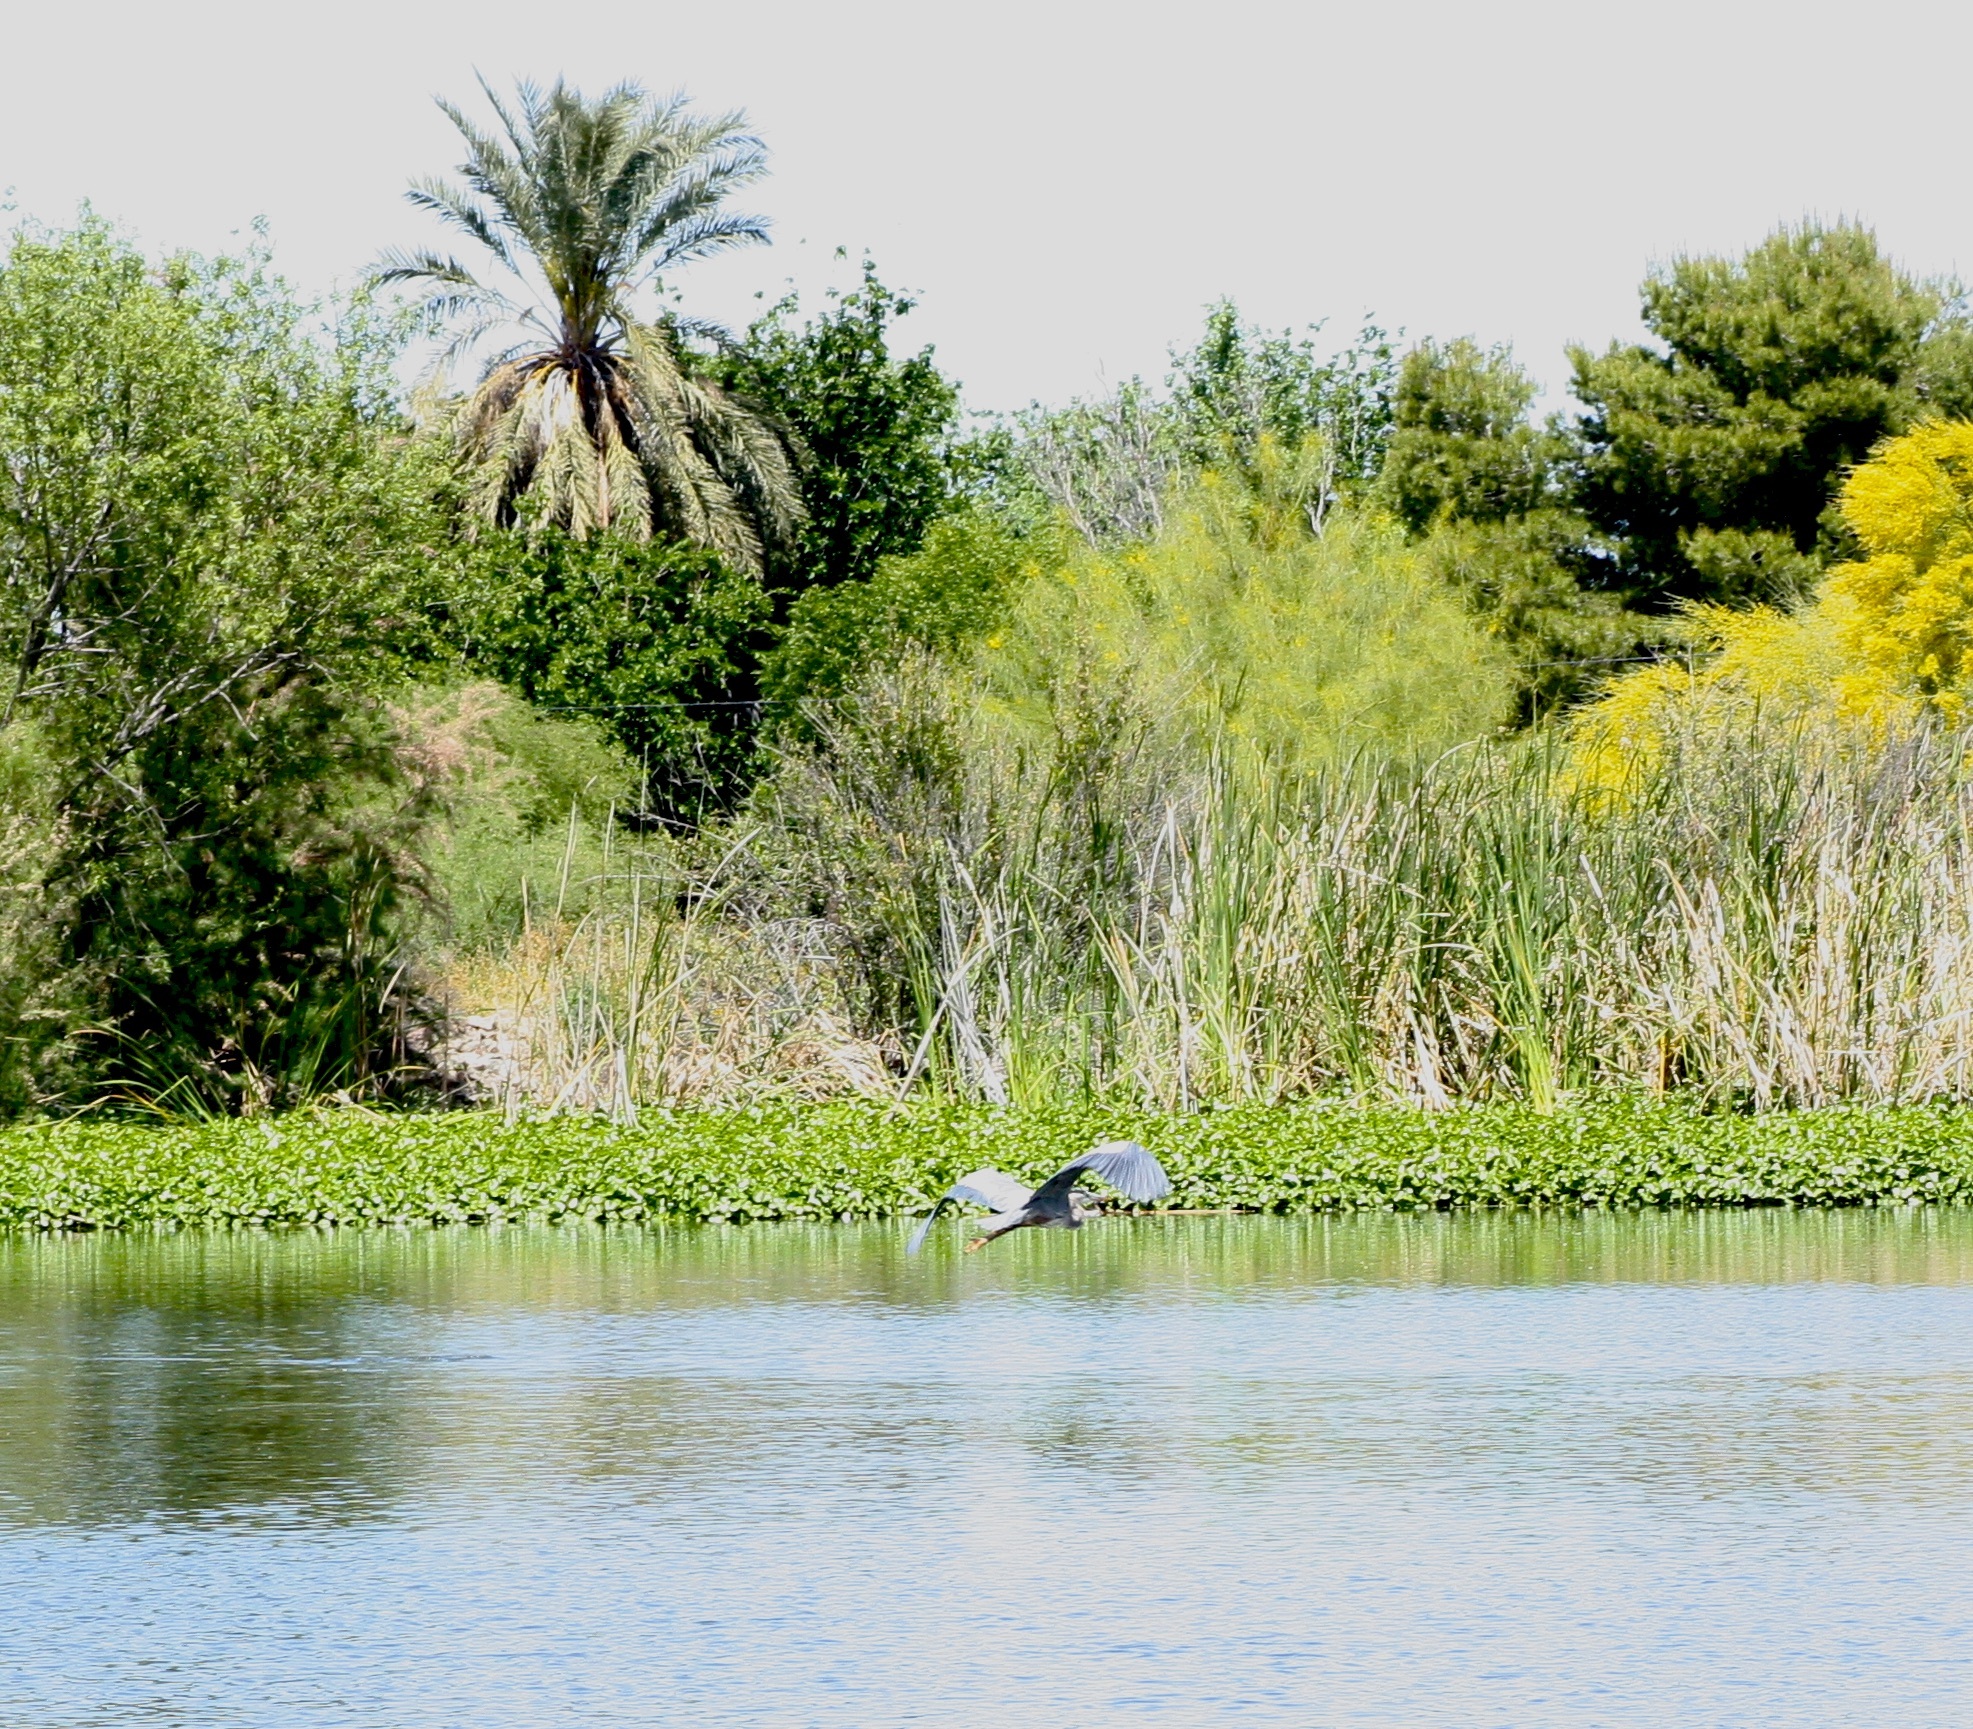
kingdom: Animalia
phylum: Chordata
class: Aves
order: Pelecaniformes
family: Ardeidae
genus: Ardea
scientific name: Ardea herodias
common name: Great blue heron
